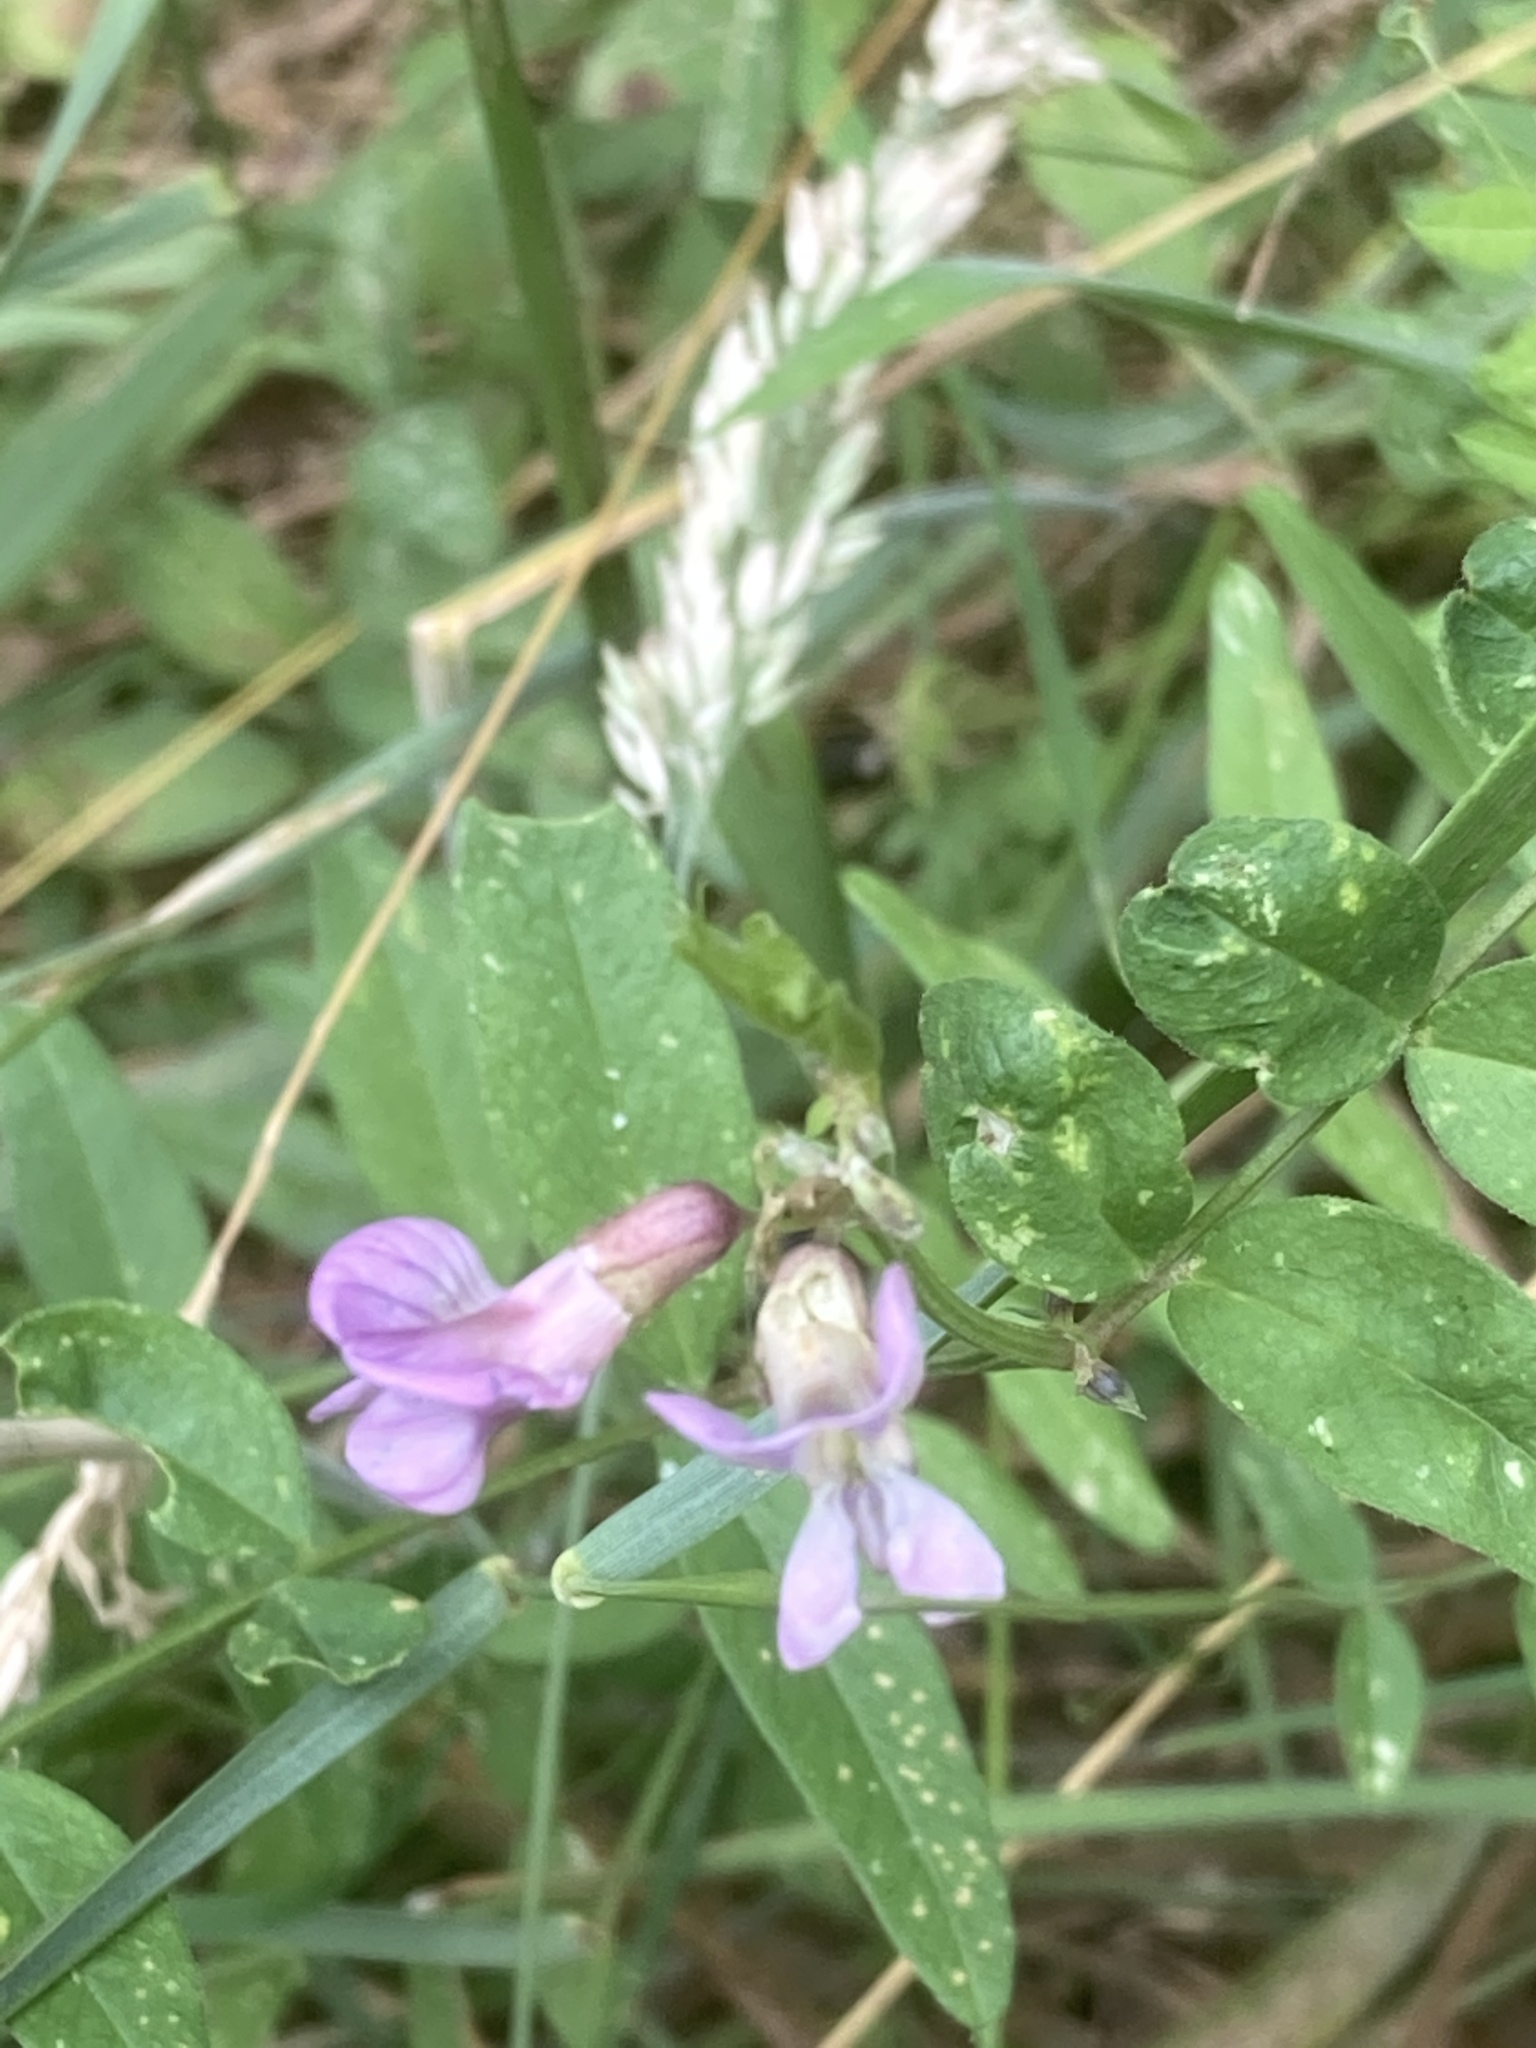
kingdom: Plantae
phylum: Tracheophyta
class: Magnoliopsida
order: Fabales
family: Fabaceae
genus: Vicia
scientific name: Vicia sepium
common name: Bush vetch
